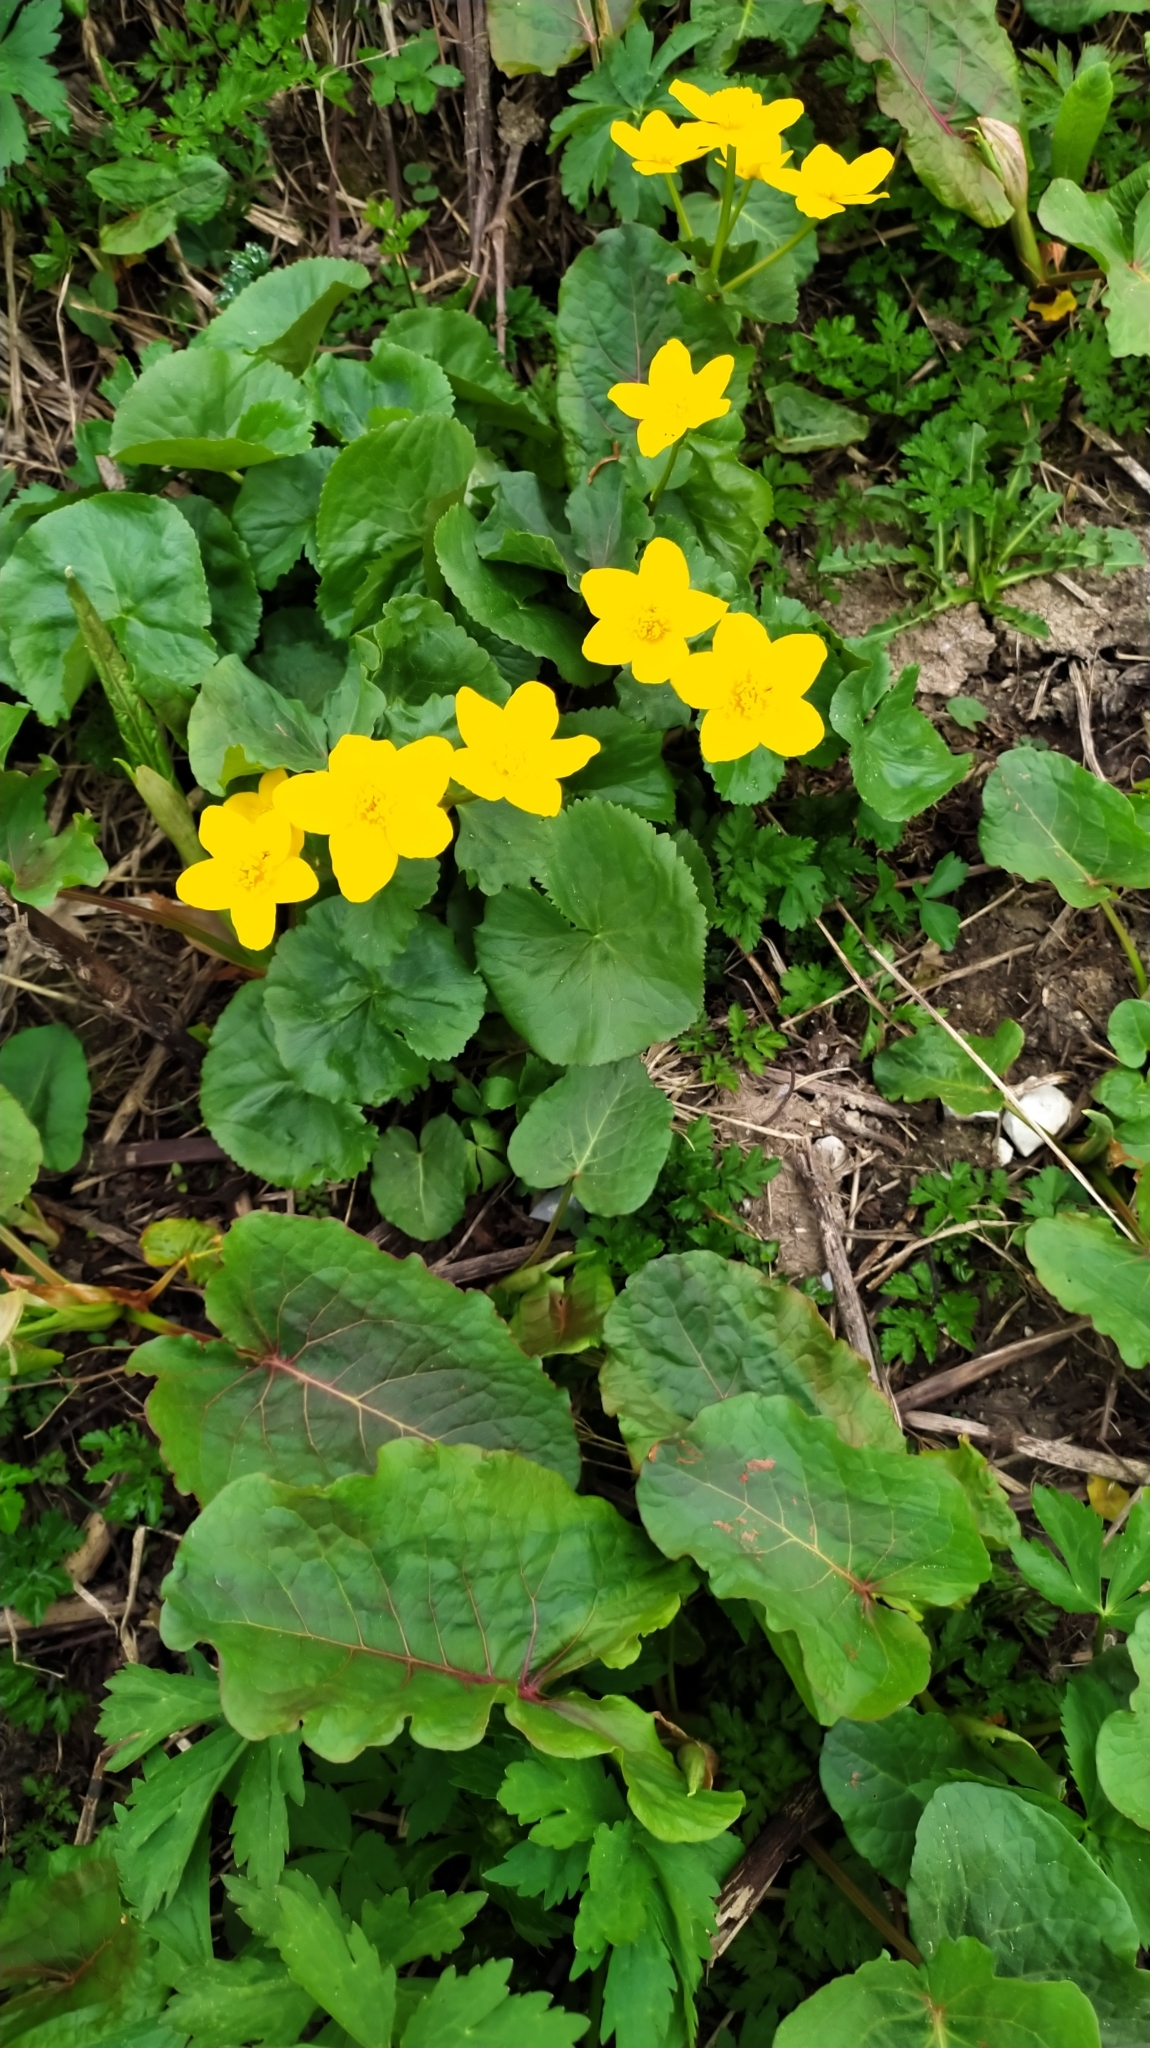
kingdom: Plantae
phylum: Tracheophyta
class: Magnoliopsida
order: Ranunculales
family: Ranunculaceae
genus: Caltha
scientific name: Caltha palustris
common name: Marsh marigold
